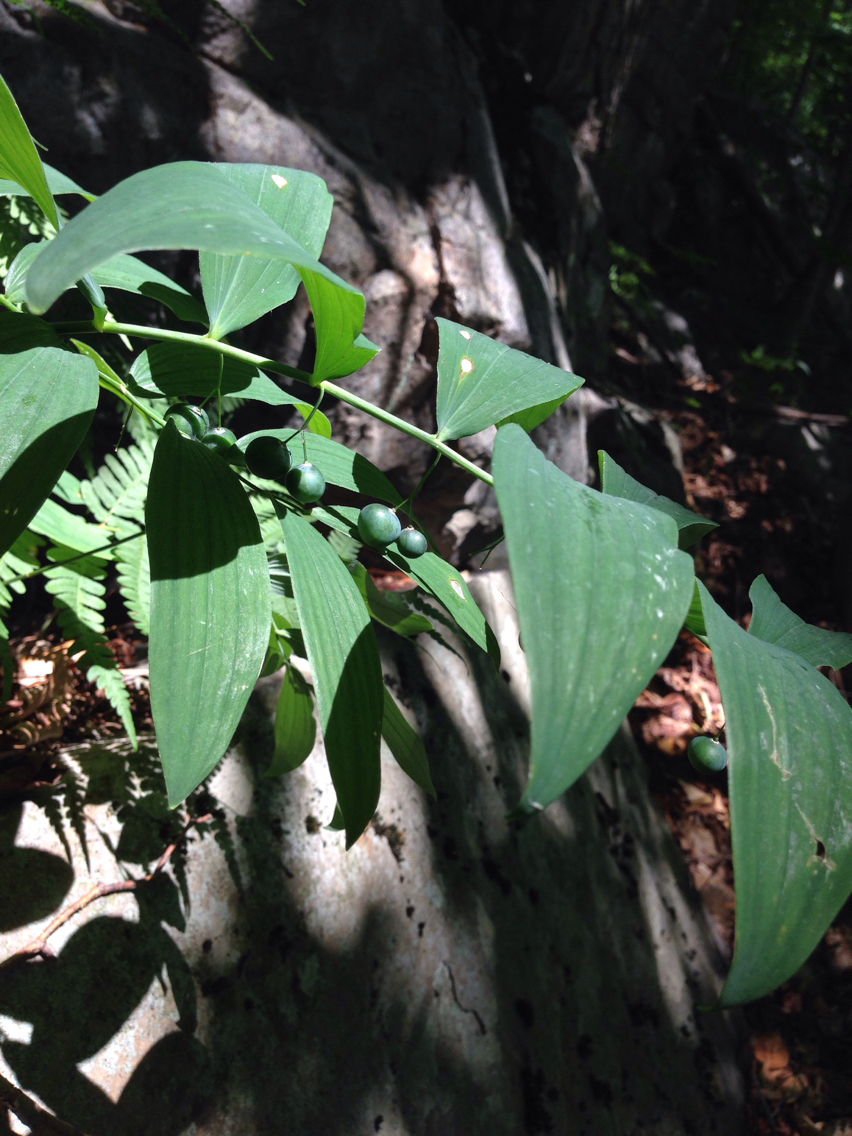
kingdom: Plantae
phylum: Tracheophyta
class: Liliopsida
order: Asparagales
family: Asparagaceae
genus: Polygonatum
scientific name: Polygonatum pubescens
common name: Downy solomon's seal
